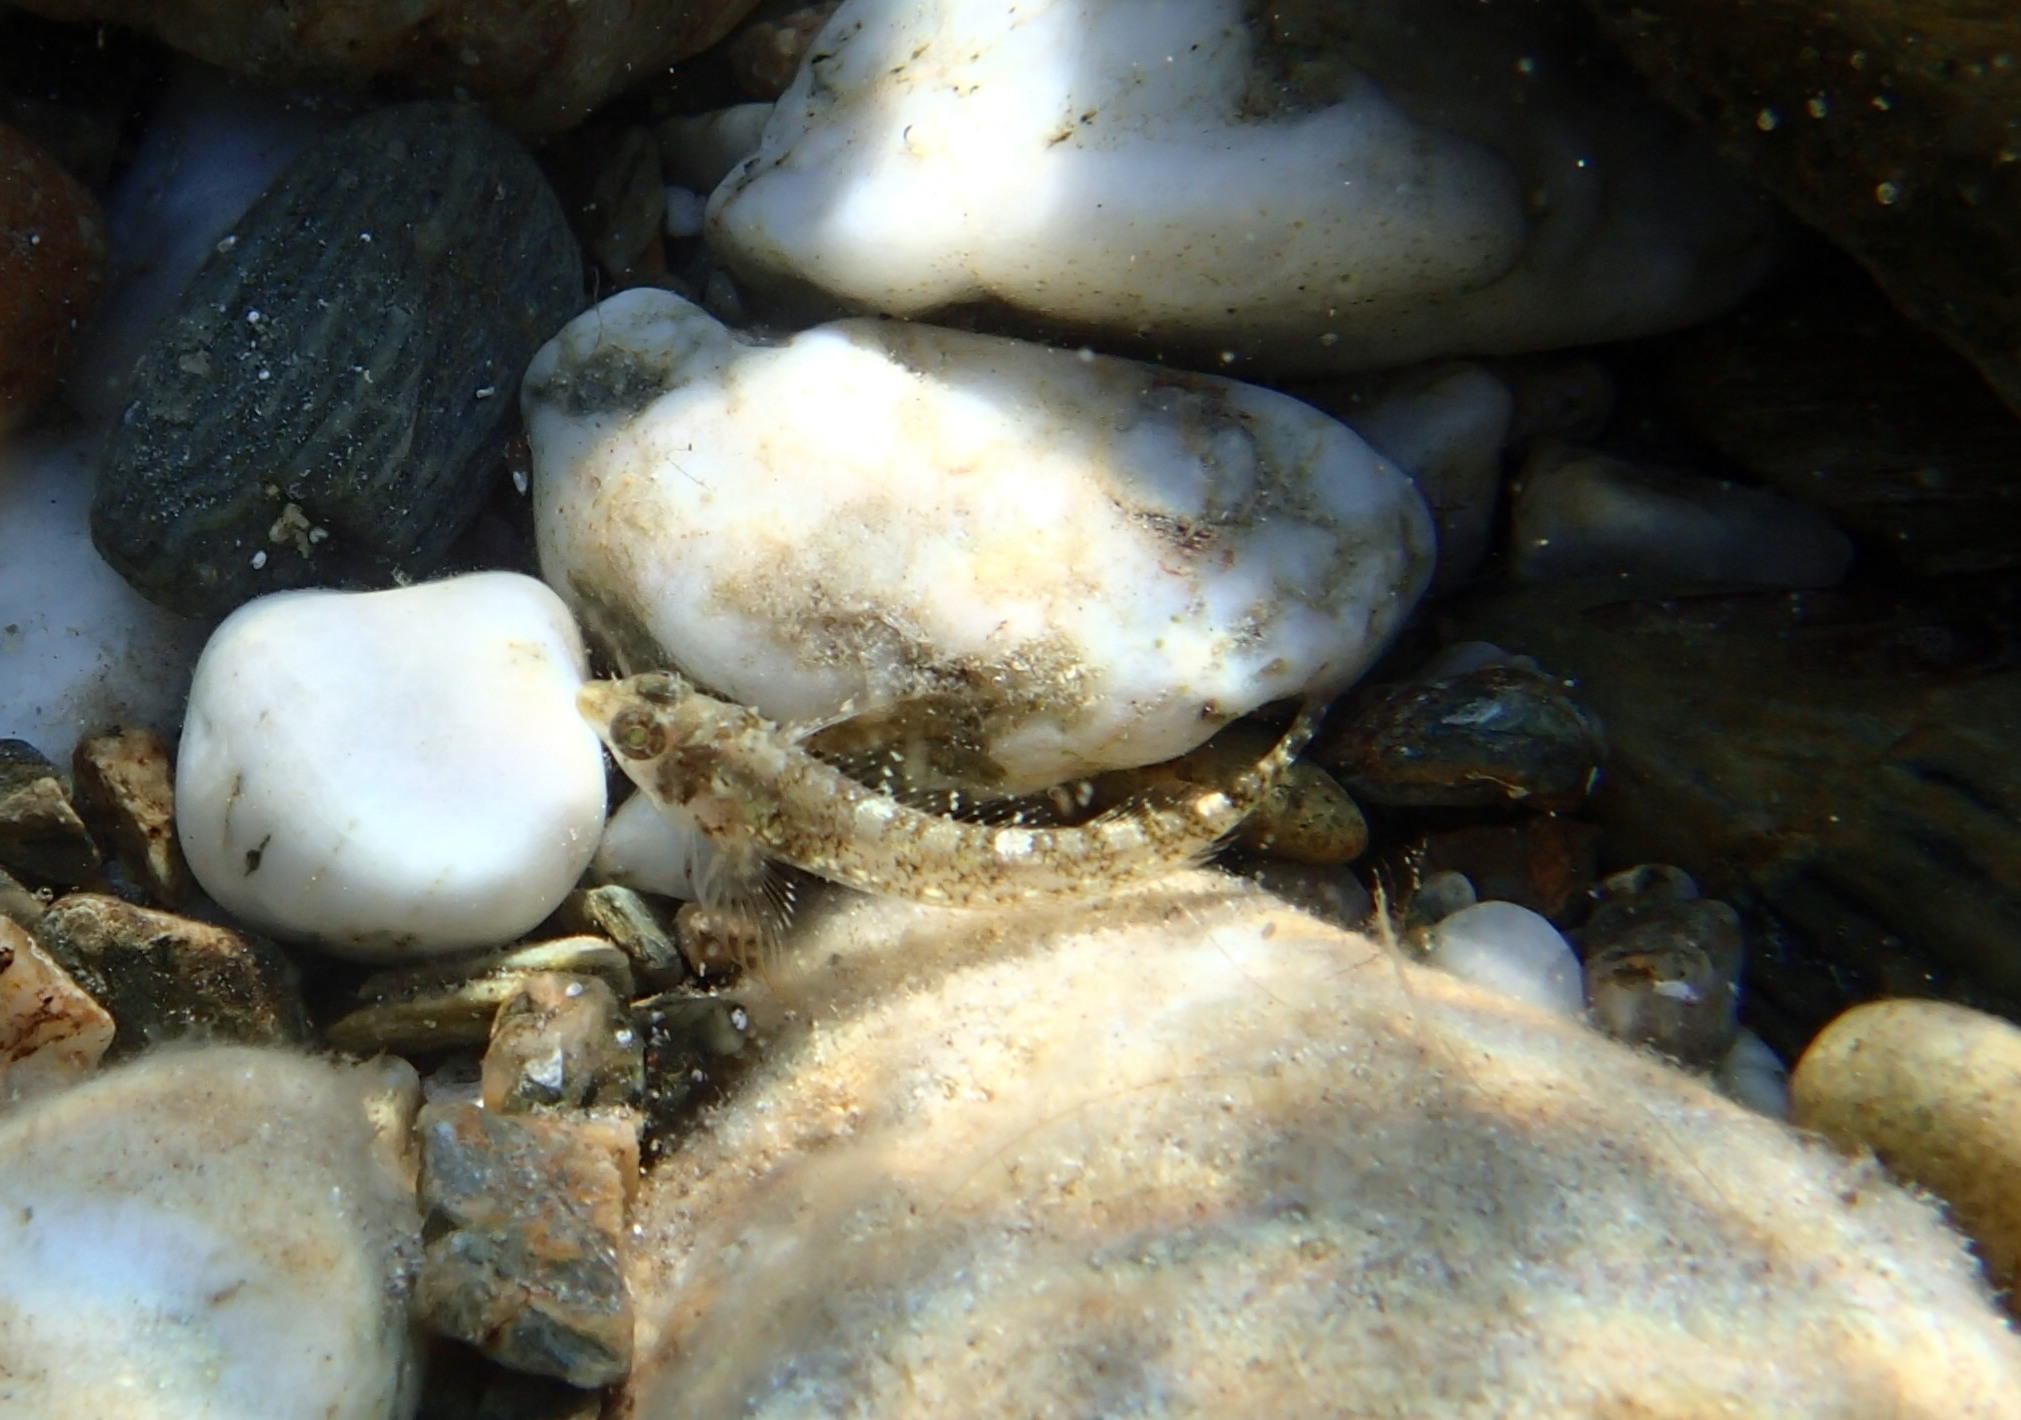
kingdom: Animalia
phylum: Chordata
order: Perciformes
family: Tripterygiidae
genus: Tripterygion
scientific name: Tripterygion tripteronotum
